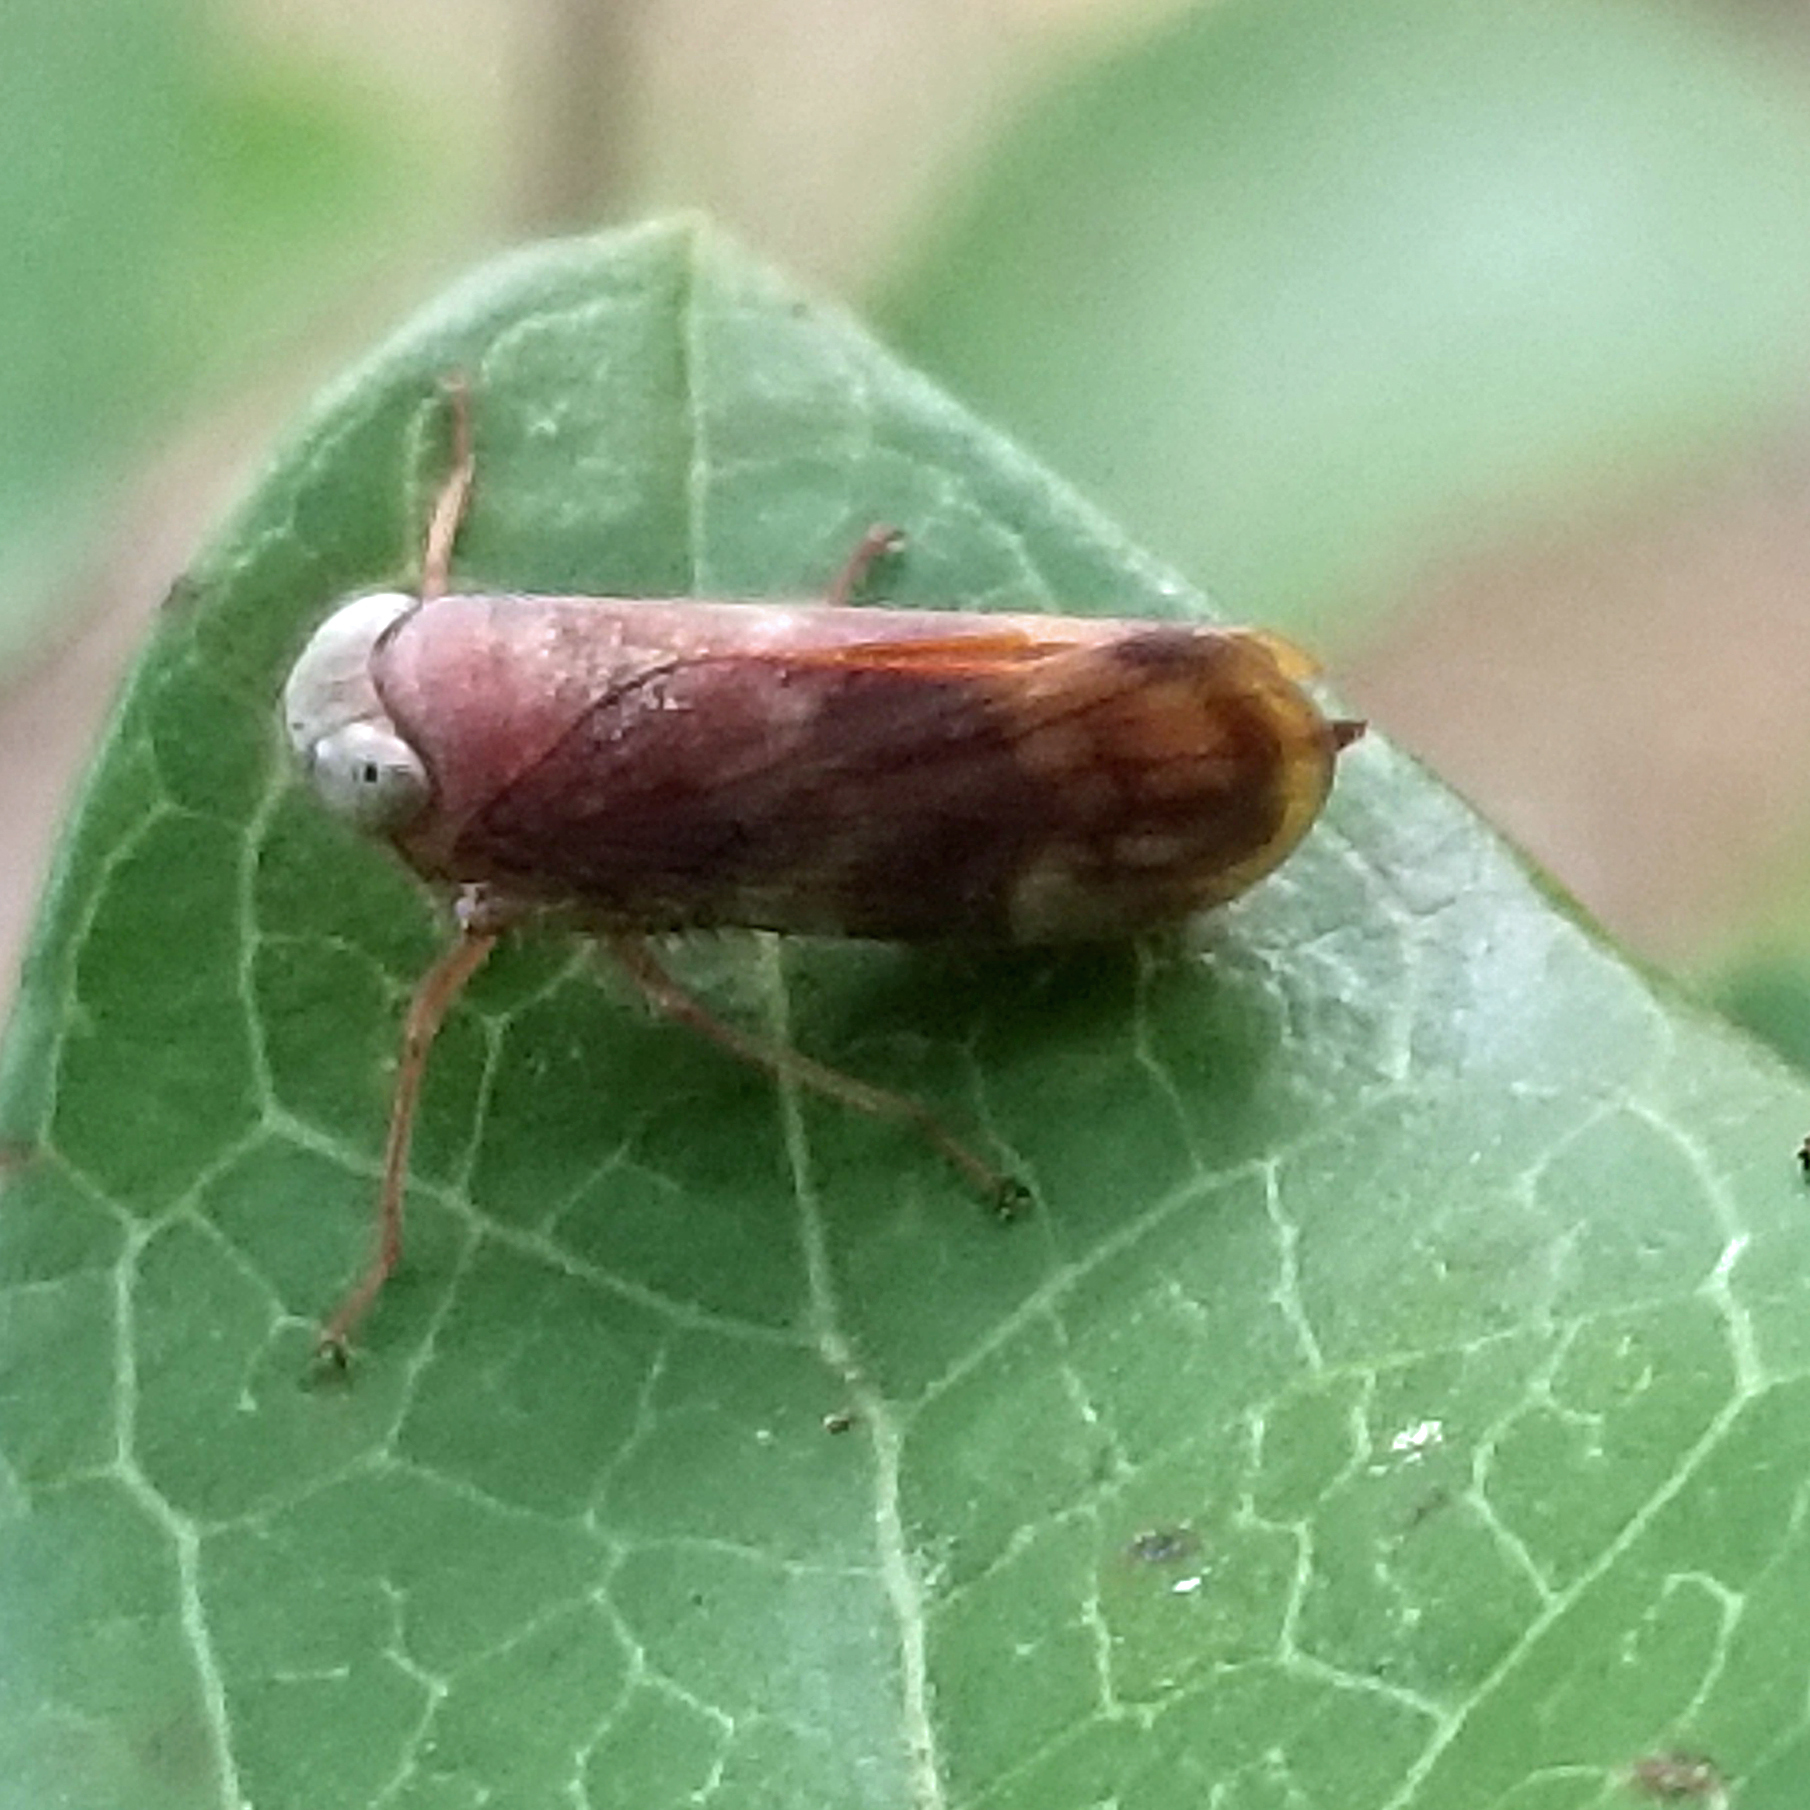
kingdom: Animalia
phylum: Arthropoda
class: Insecta
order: Hemiptera
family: Cicadellidae
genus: Jikradia
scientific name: Jikradia olitoria
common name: Coppery leafhopper
